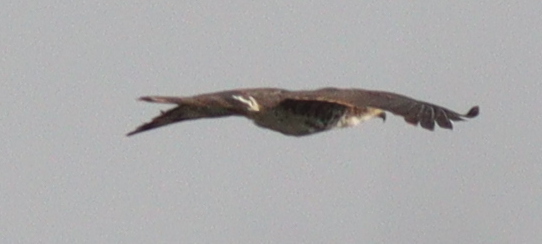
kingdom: Animalia
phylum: Chordata
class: Aves
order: Accipitriformes
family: Accipitridae
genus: Aviceda
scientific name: Aviceda cuculoides
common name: African cuckoo-hawk
